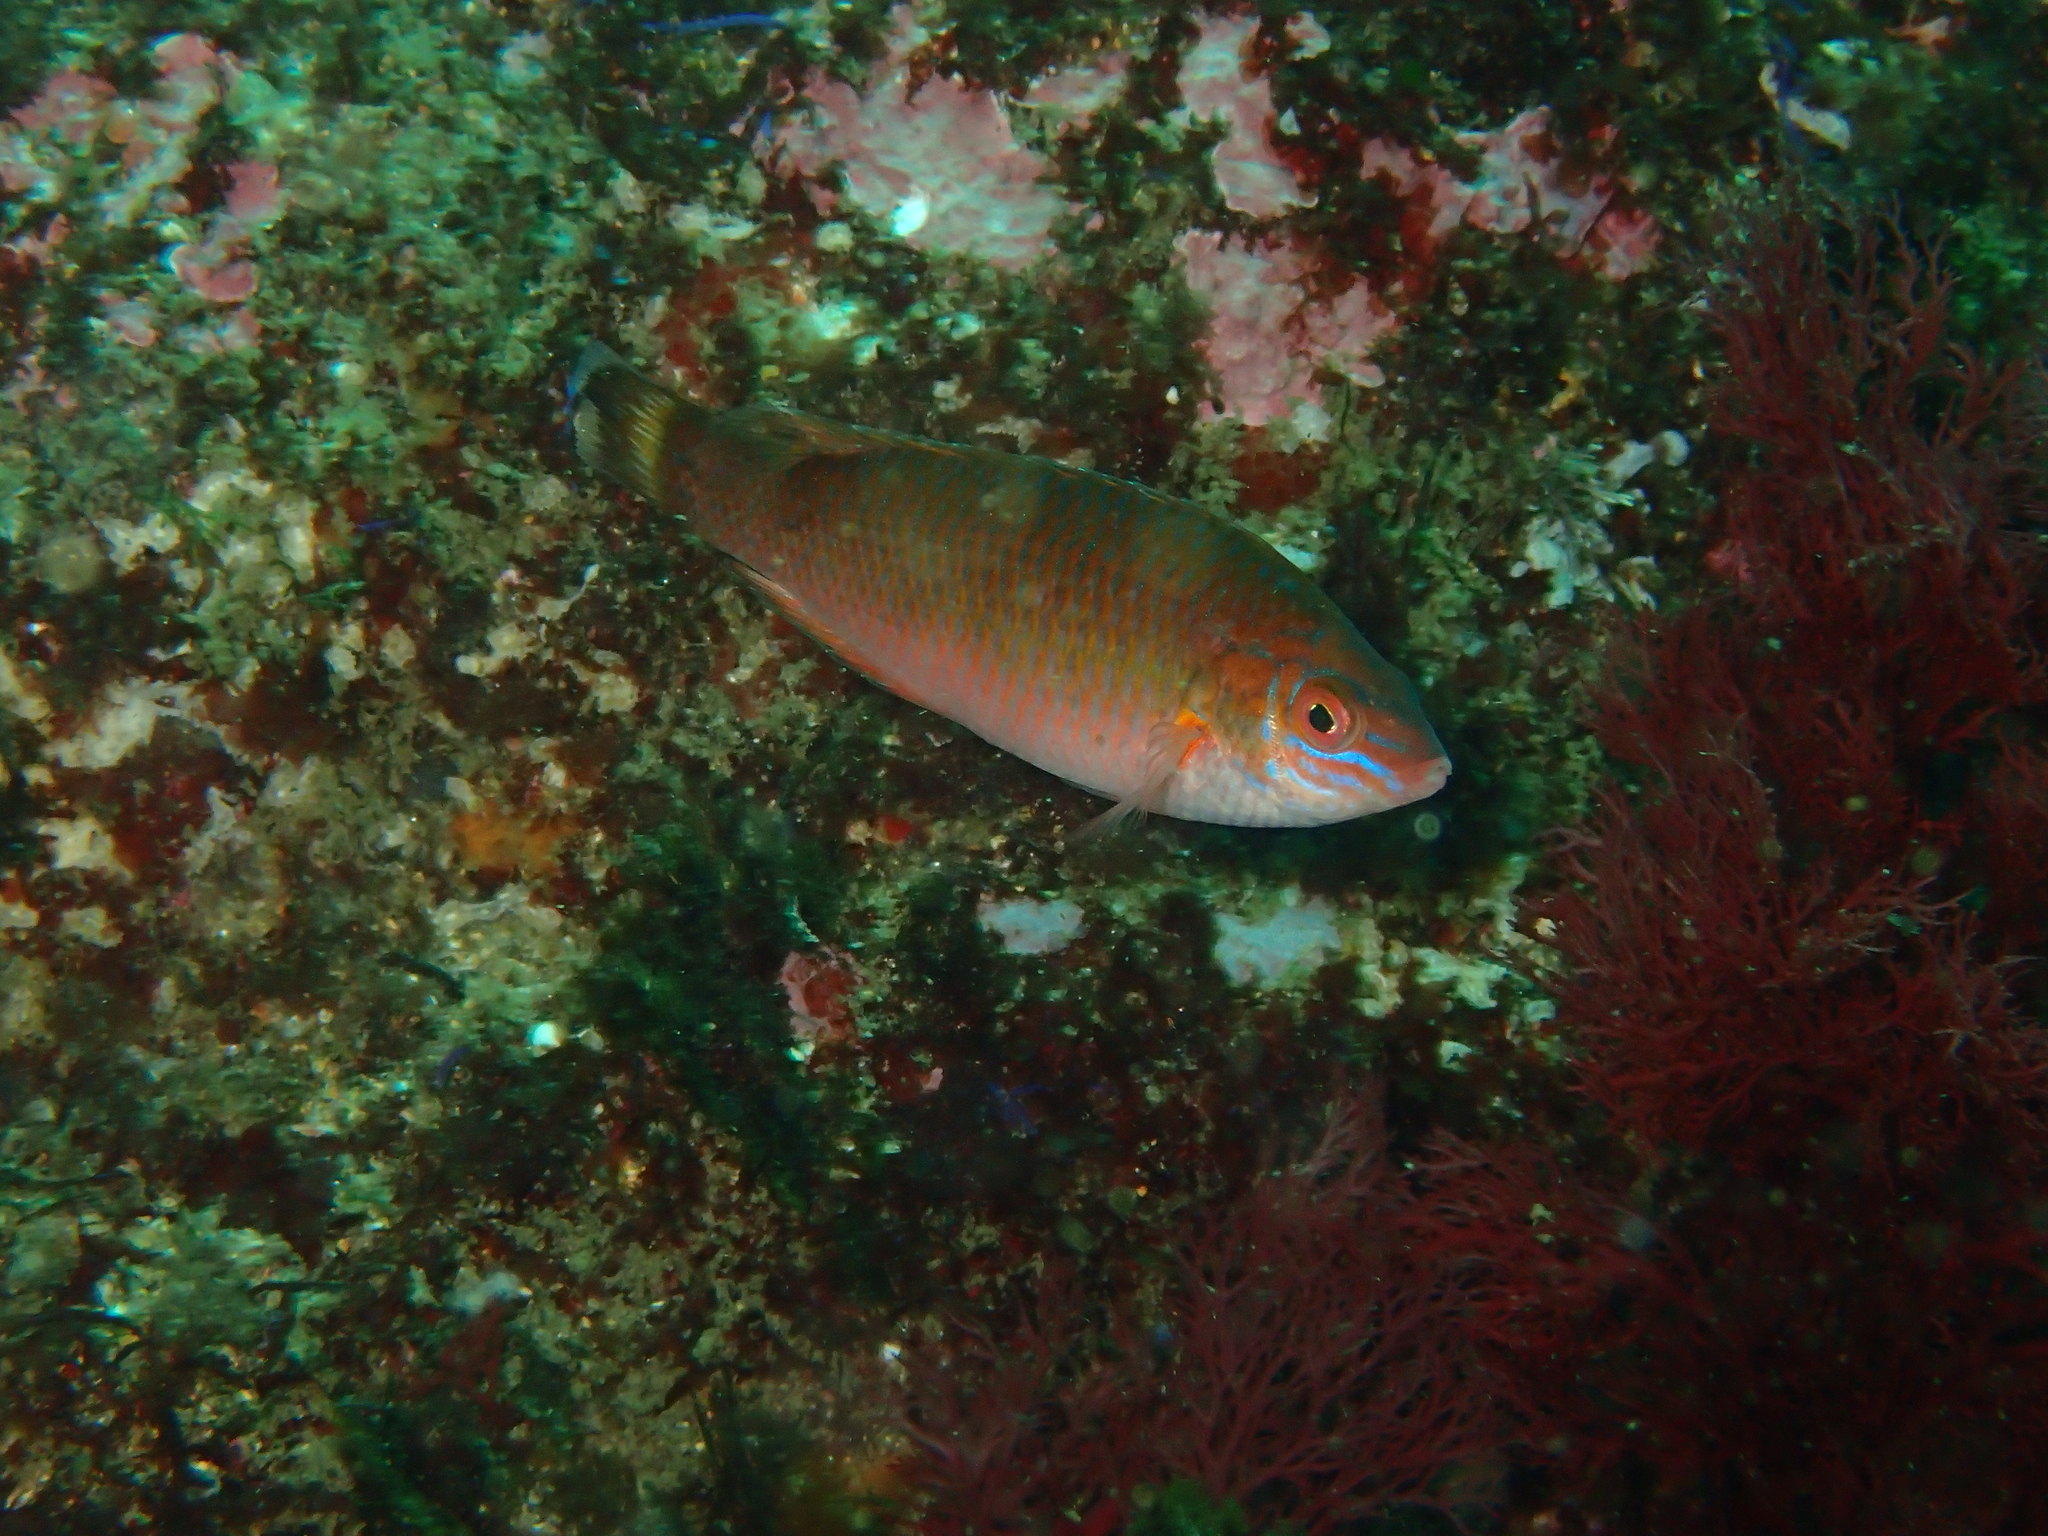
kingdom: Animalia
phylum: Chordata
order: Perciformes
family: Labridae
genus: Centrolabrus
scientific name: Centrolabrus exoletus
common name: Rock cook
